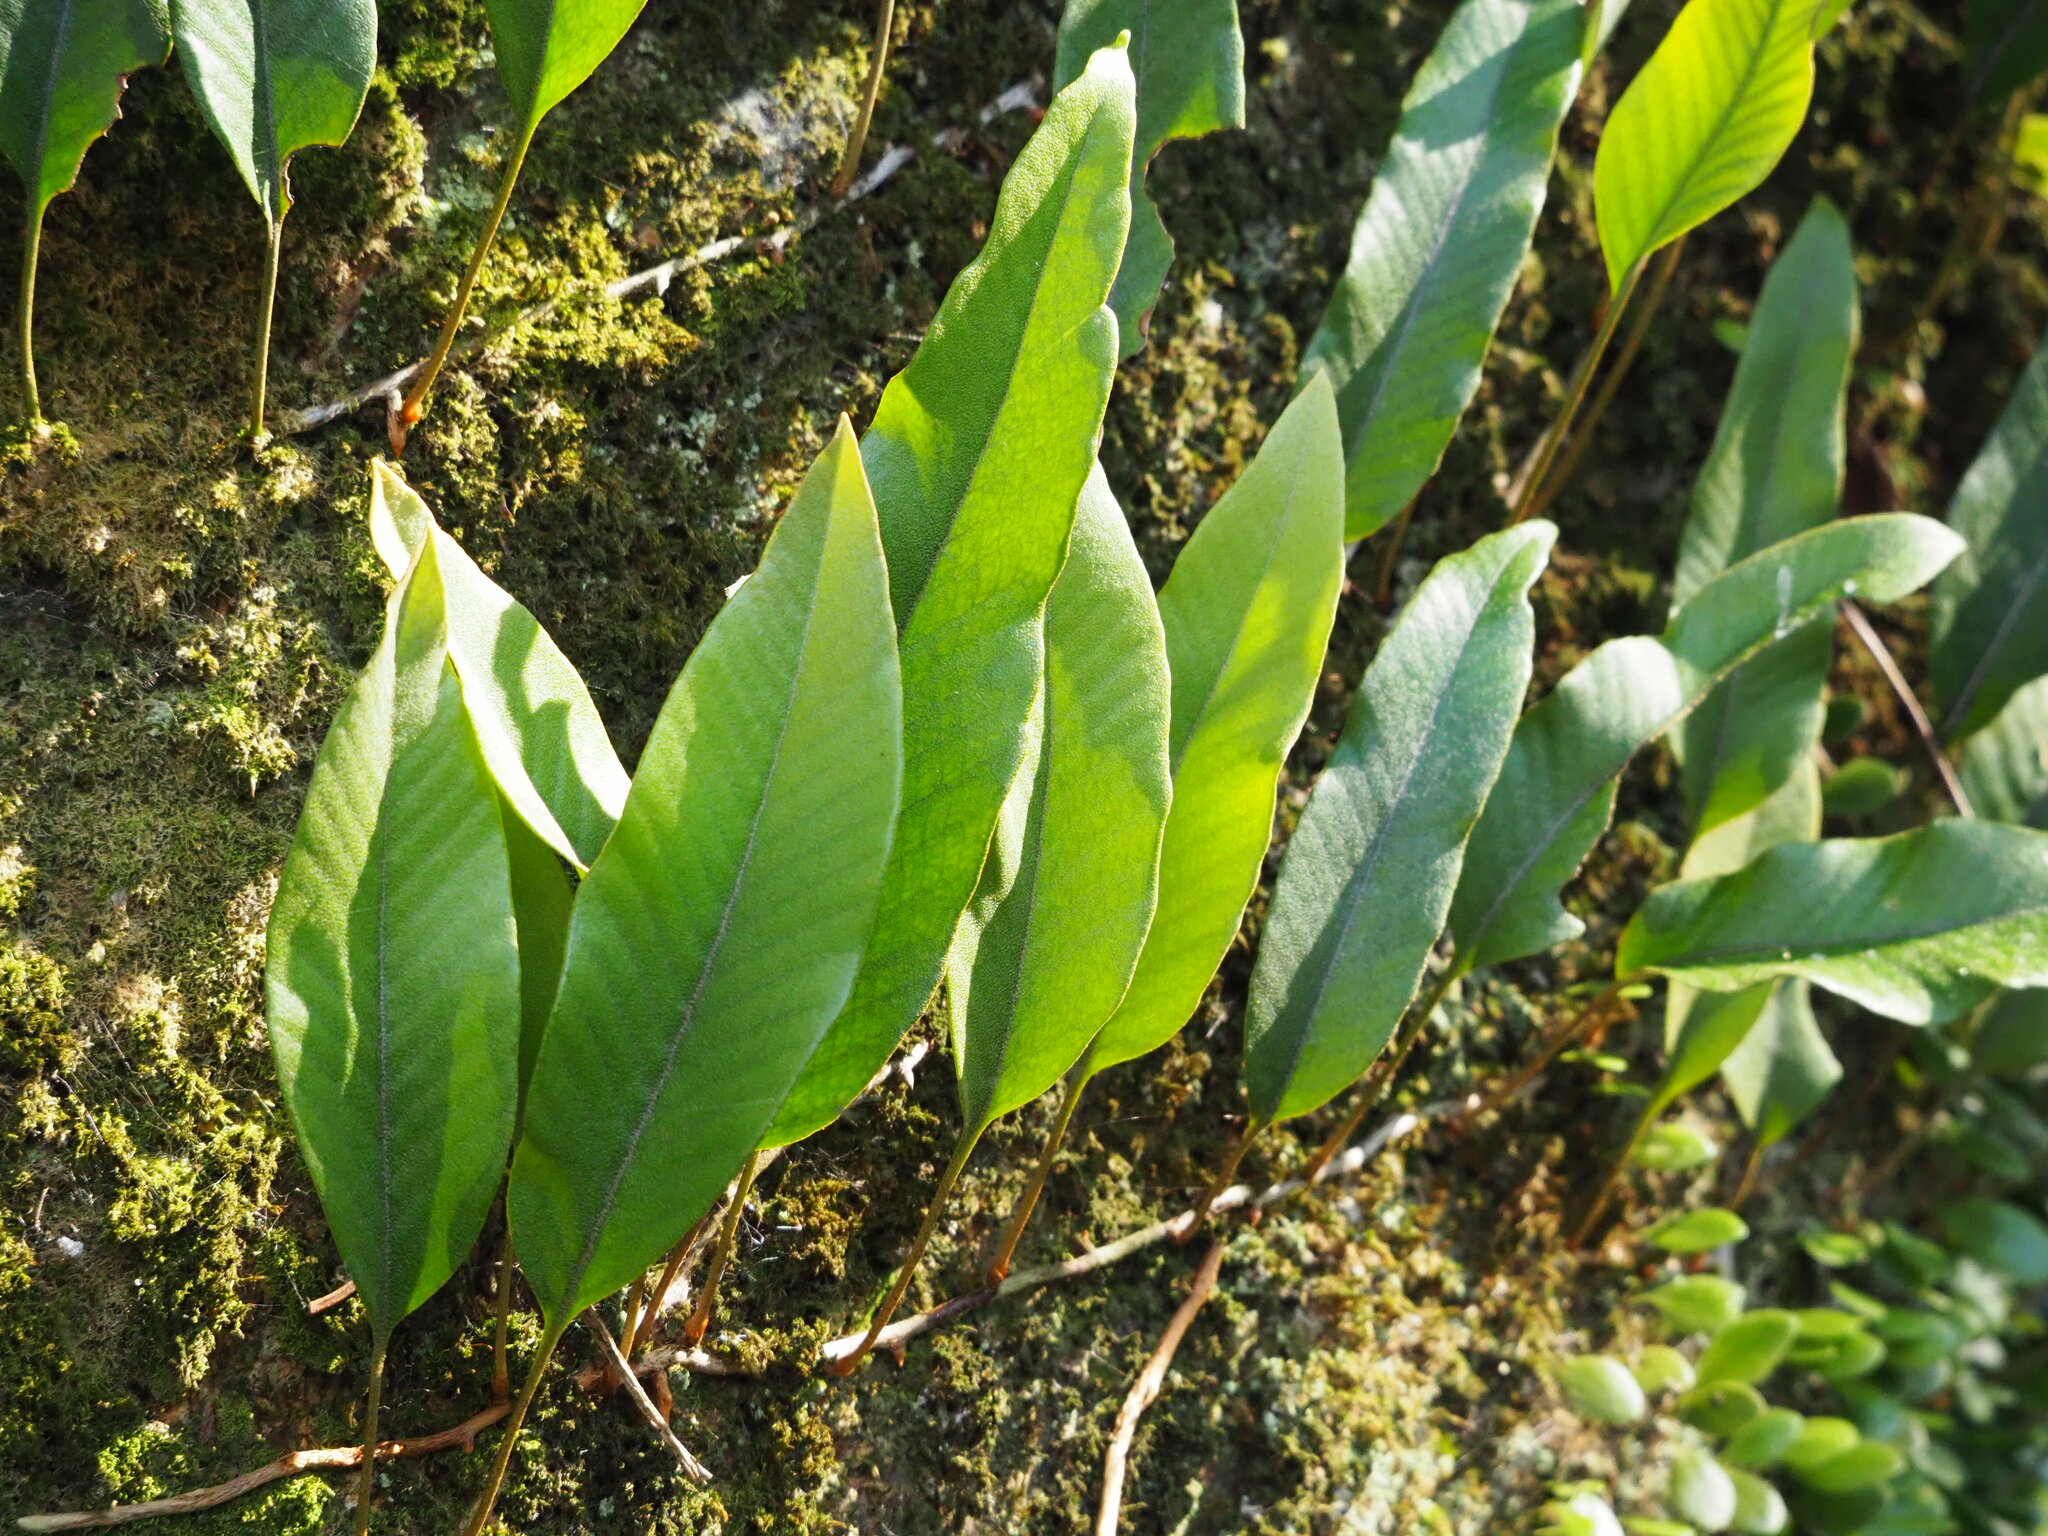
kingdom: Plantae
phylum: Tracheophyta
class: Polypodiopsida
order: Polypodiales
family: Polypodiaceae
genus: Pyrrosia
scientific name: Pyrrosia lingua
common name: Felt fern
